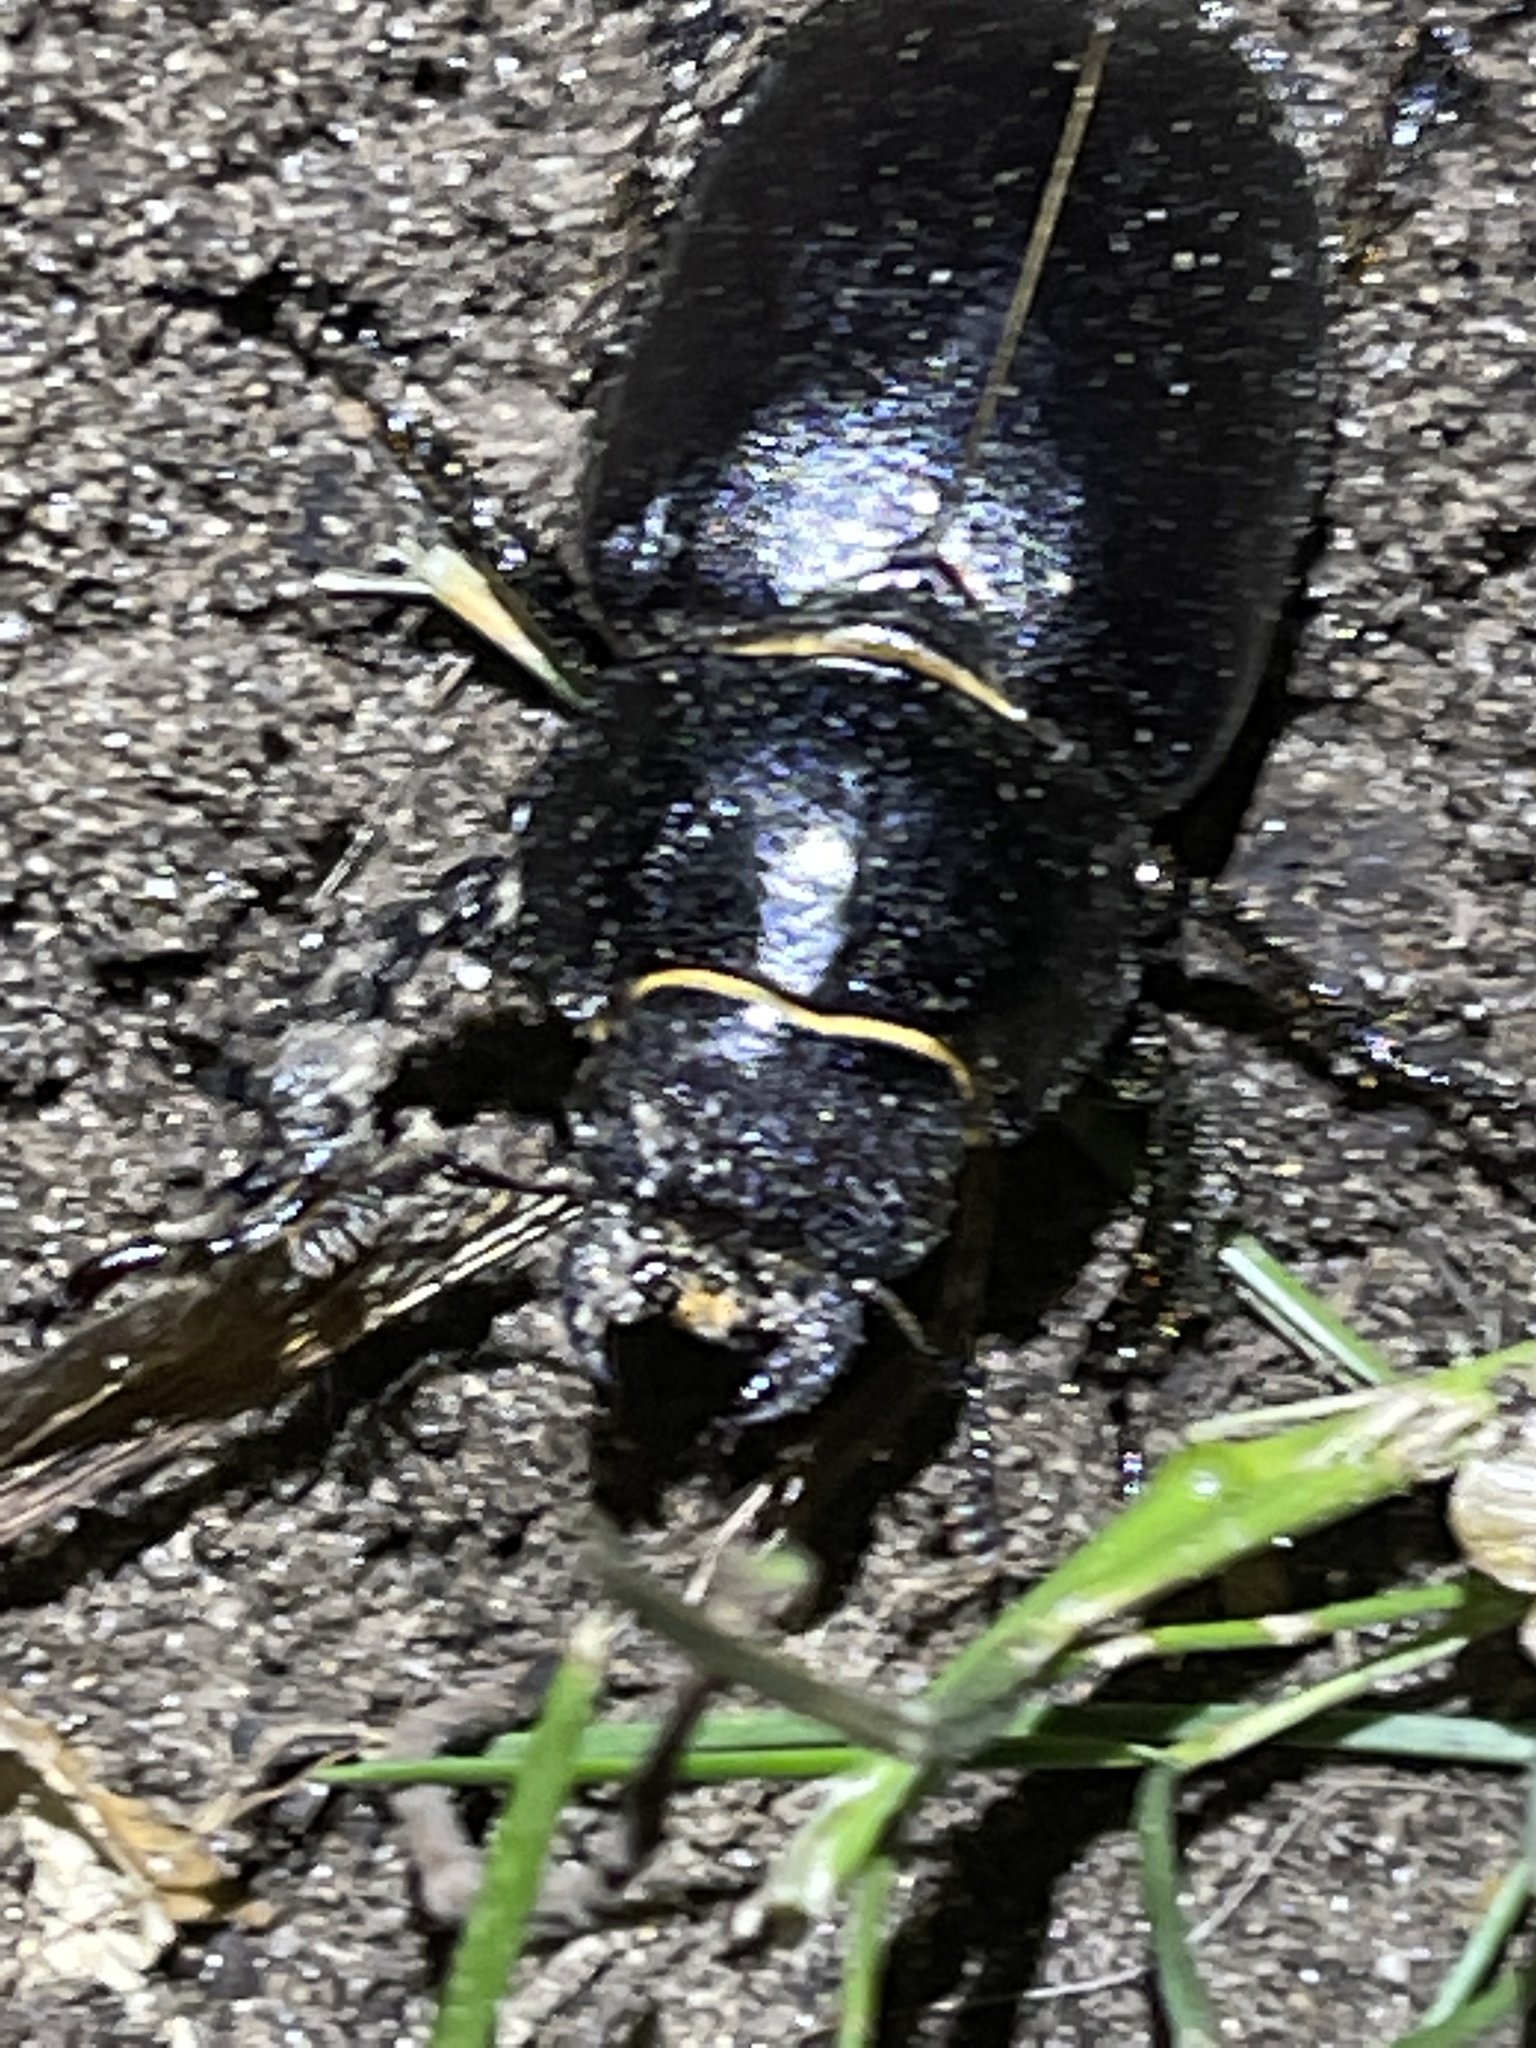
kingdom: Animalia
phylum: Arthropoda
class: Insecta
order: Coleoptera
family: Lucanidae
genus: Lucanus
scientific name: Lucanus placidus
